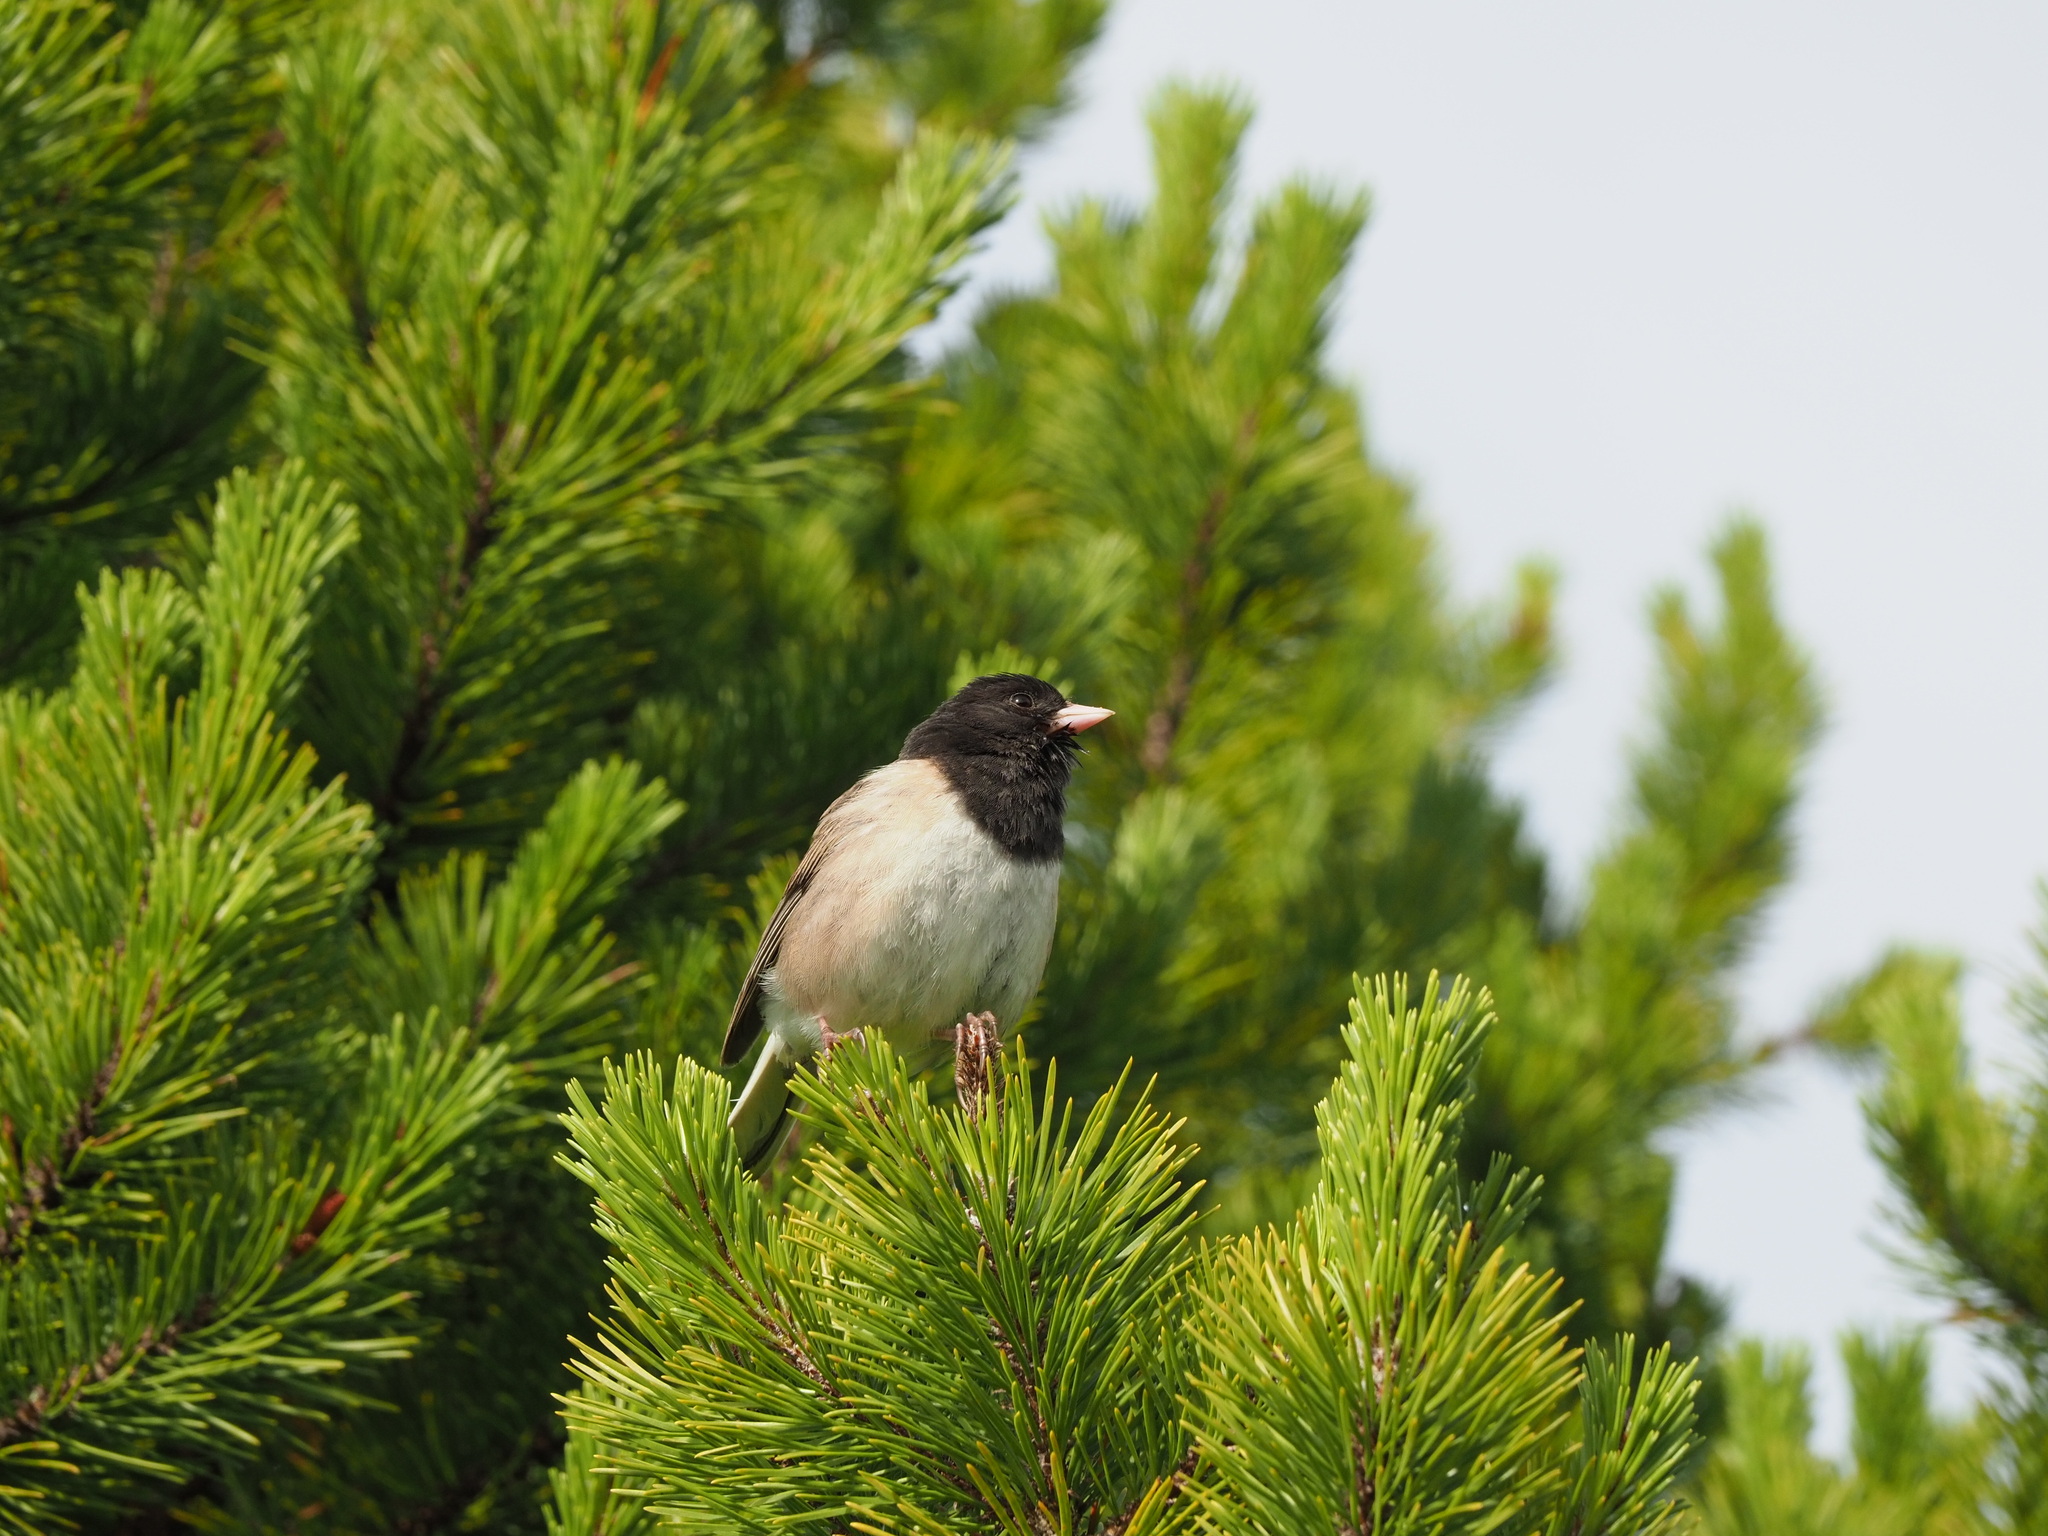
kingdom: Animalia
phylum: Chordata
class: Aves
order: Passeriformes
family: Passerellidae
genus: Junco
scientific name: Junco hyemalis
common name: Dark-eyed junco
